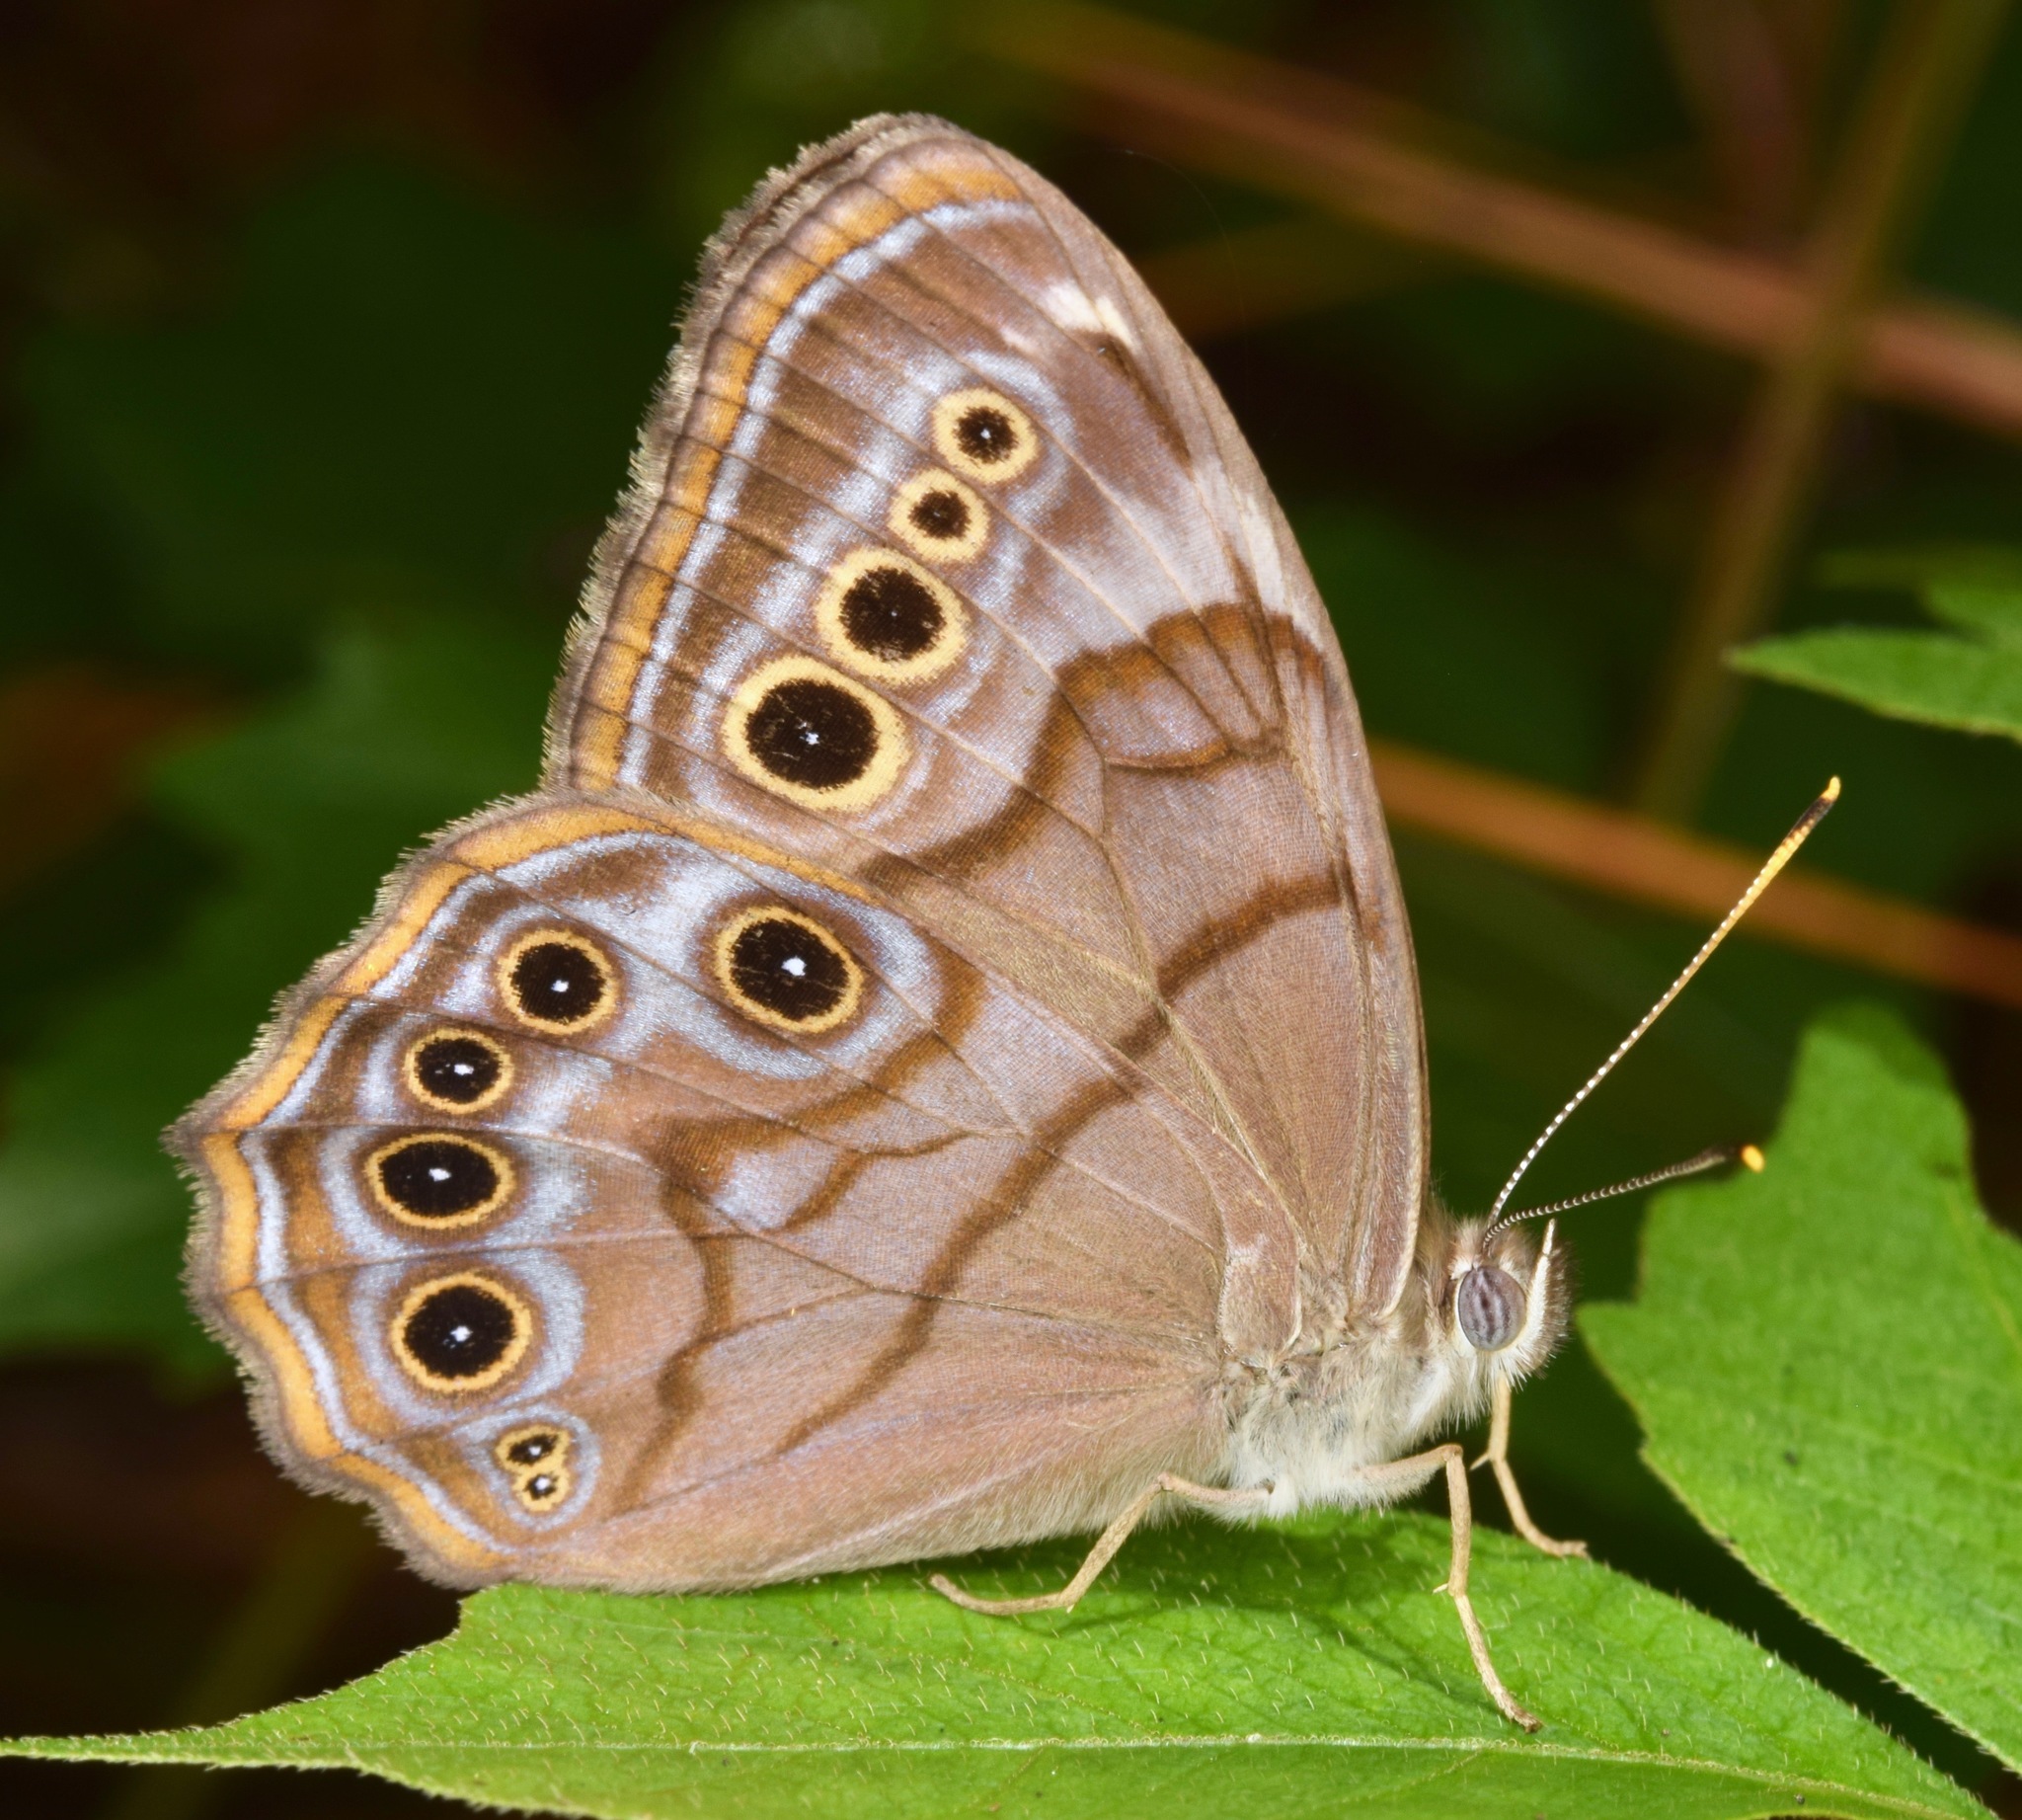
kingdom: Animalia
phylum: Arthropoda
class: Insecta
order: Lepidoptera
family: Nymphalidae
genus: Lethe
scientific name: Lethe anthedon
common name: Northern pearly-eye
